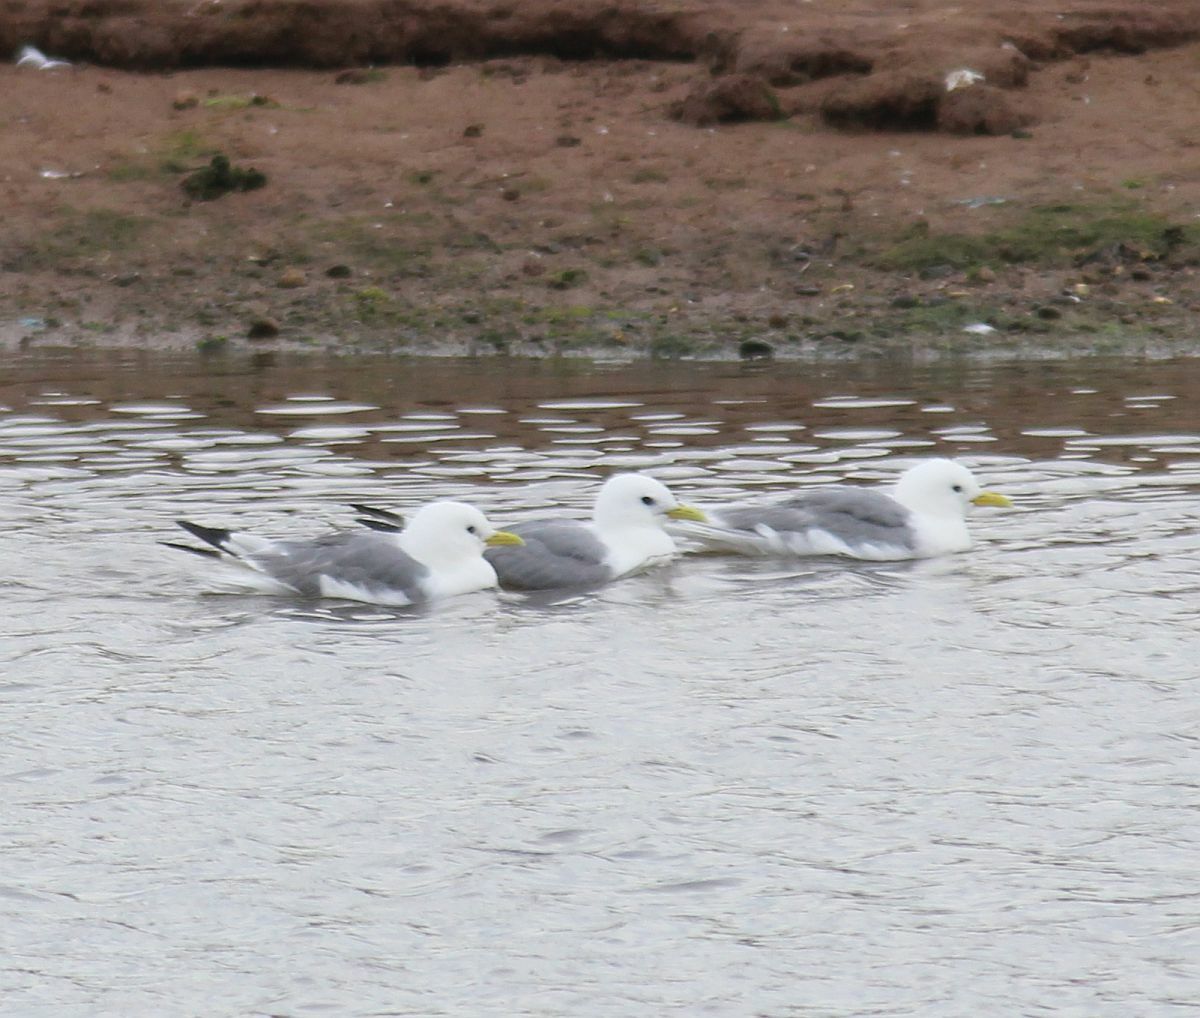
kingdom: Animalia
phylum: Chordata
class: Aves
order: Charadriiformes
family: Laridae
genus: Rissa
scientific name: Rissa tridactyla
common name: Black-legged kittiwake
